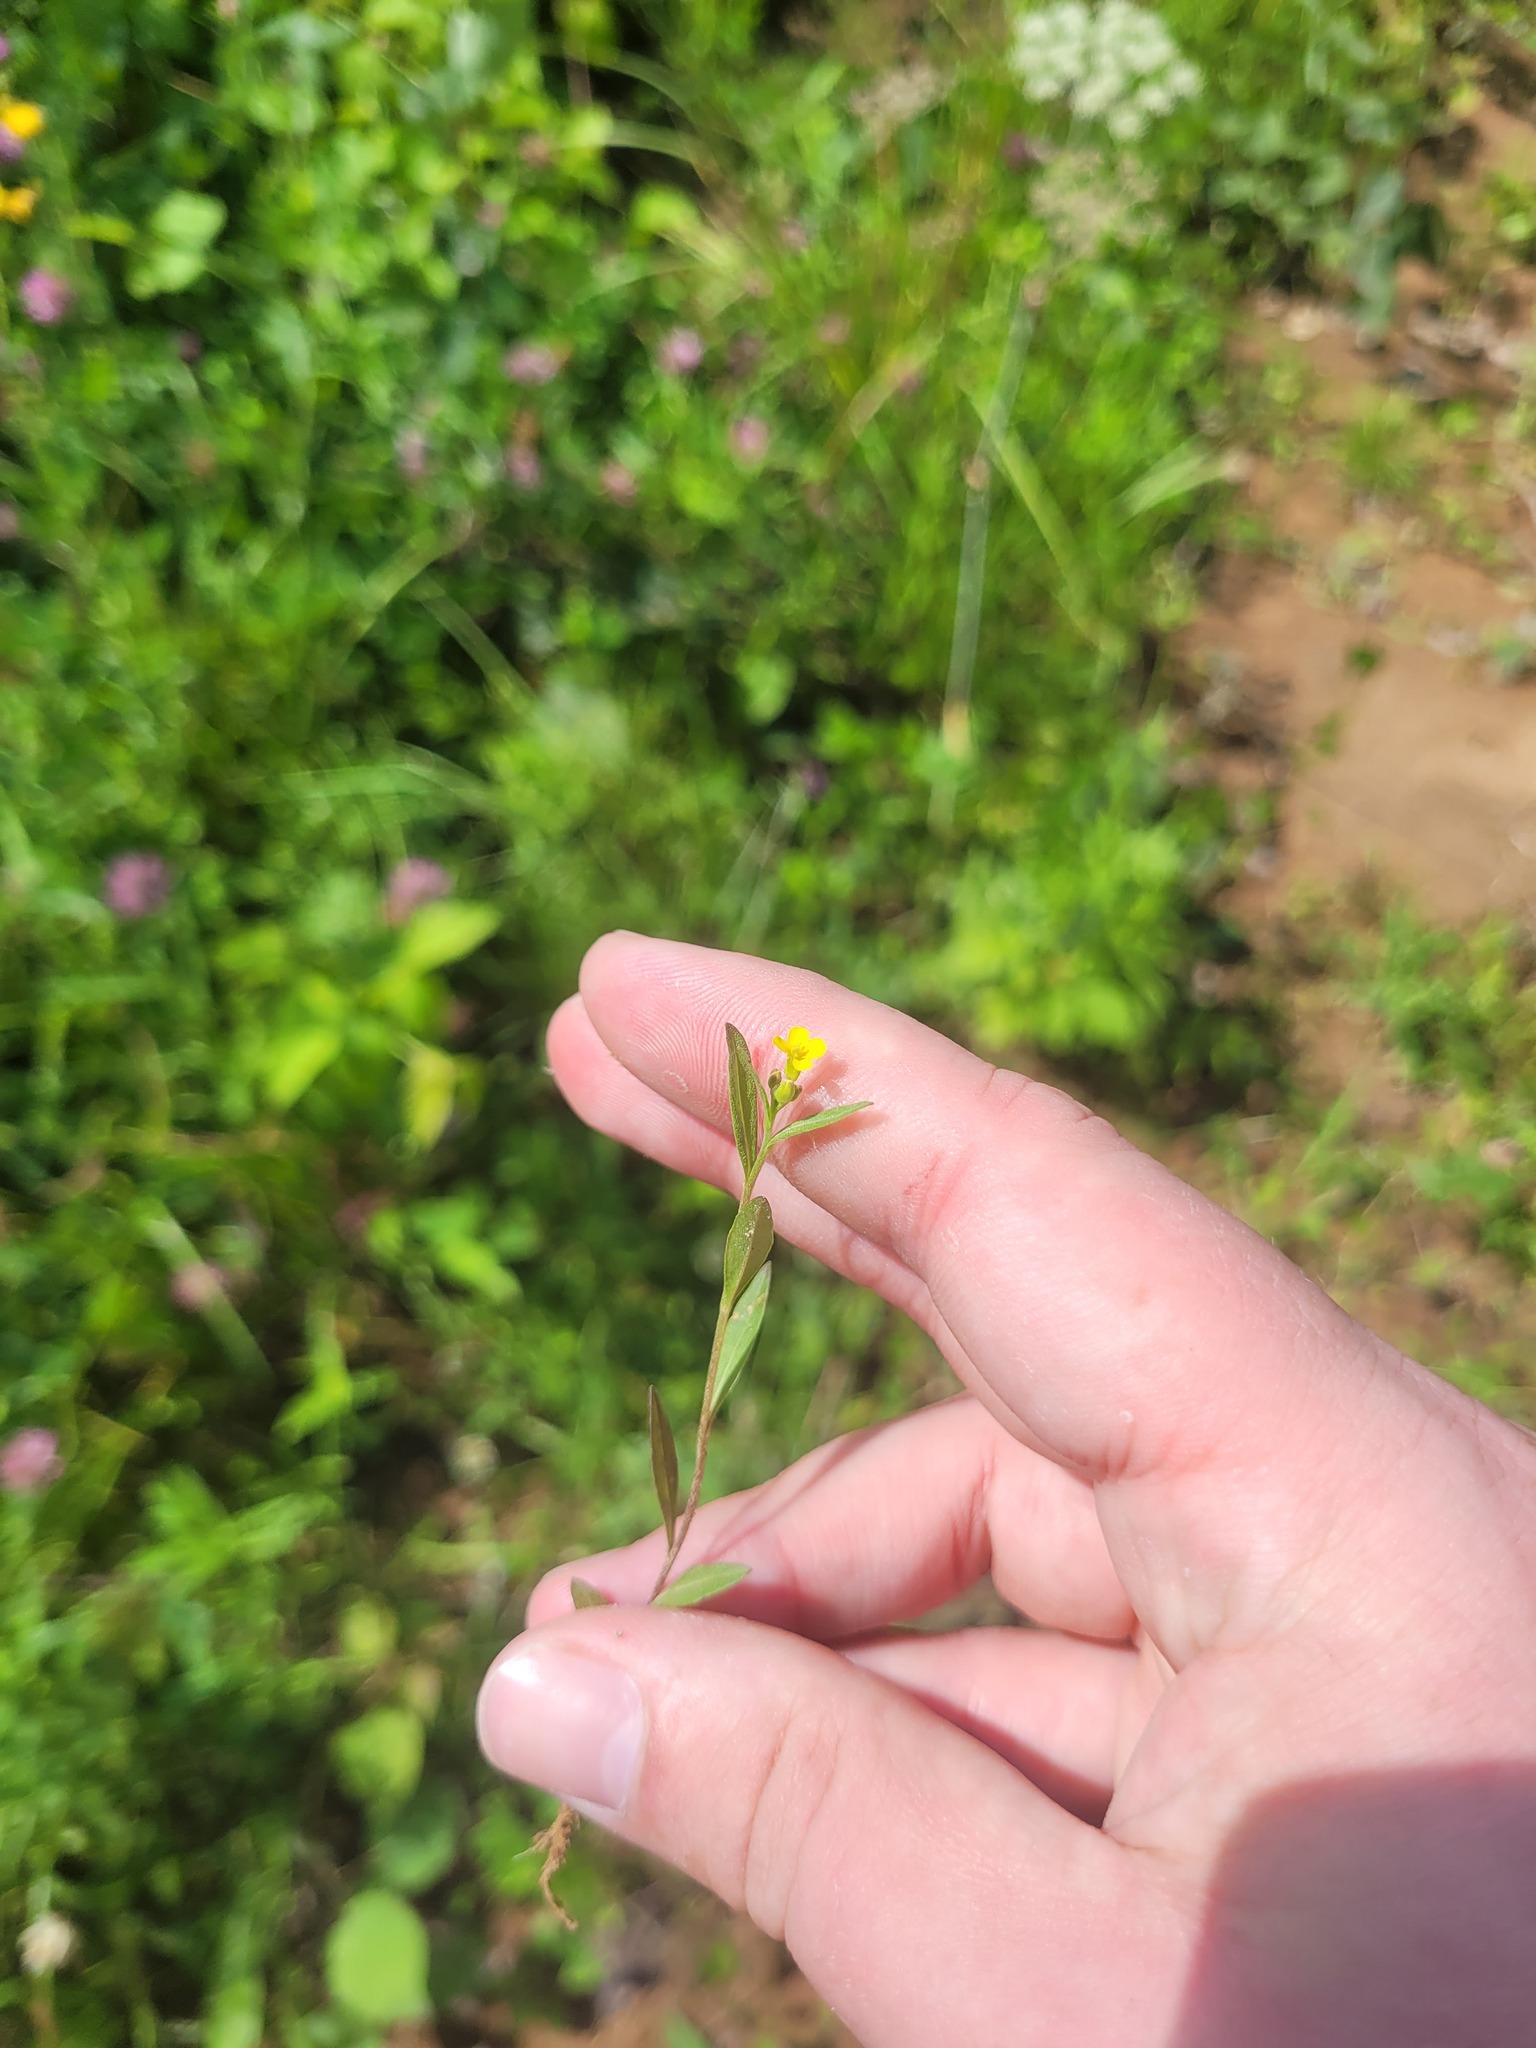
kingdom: Plantae
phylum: Tracheophyta
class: Magnoliopsida
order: Brassicales
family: Brassicaceae
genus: Erysimum
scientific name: Erysimum cheiranthoides
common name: Treacle mustard
